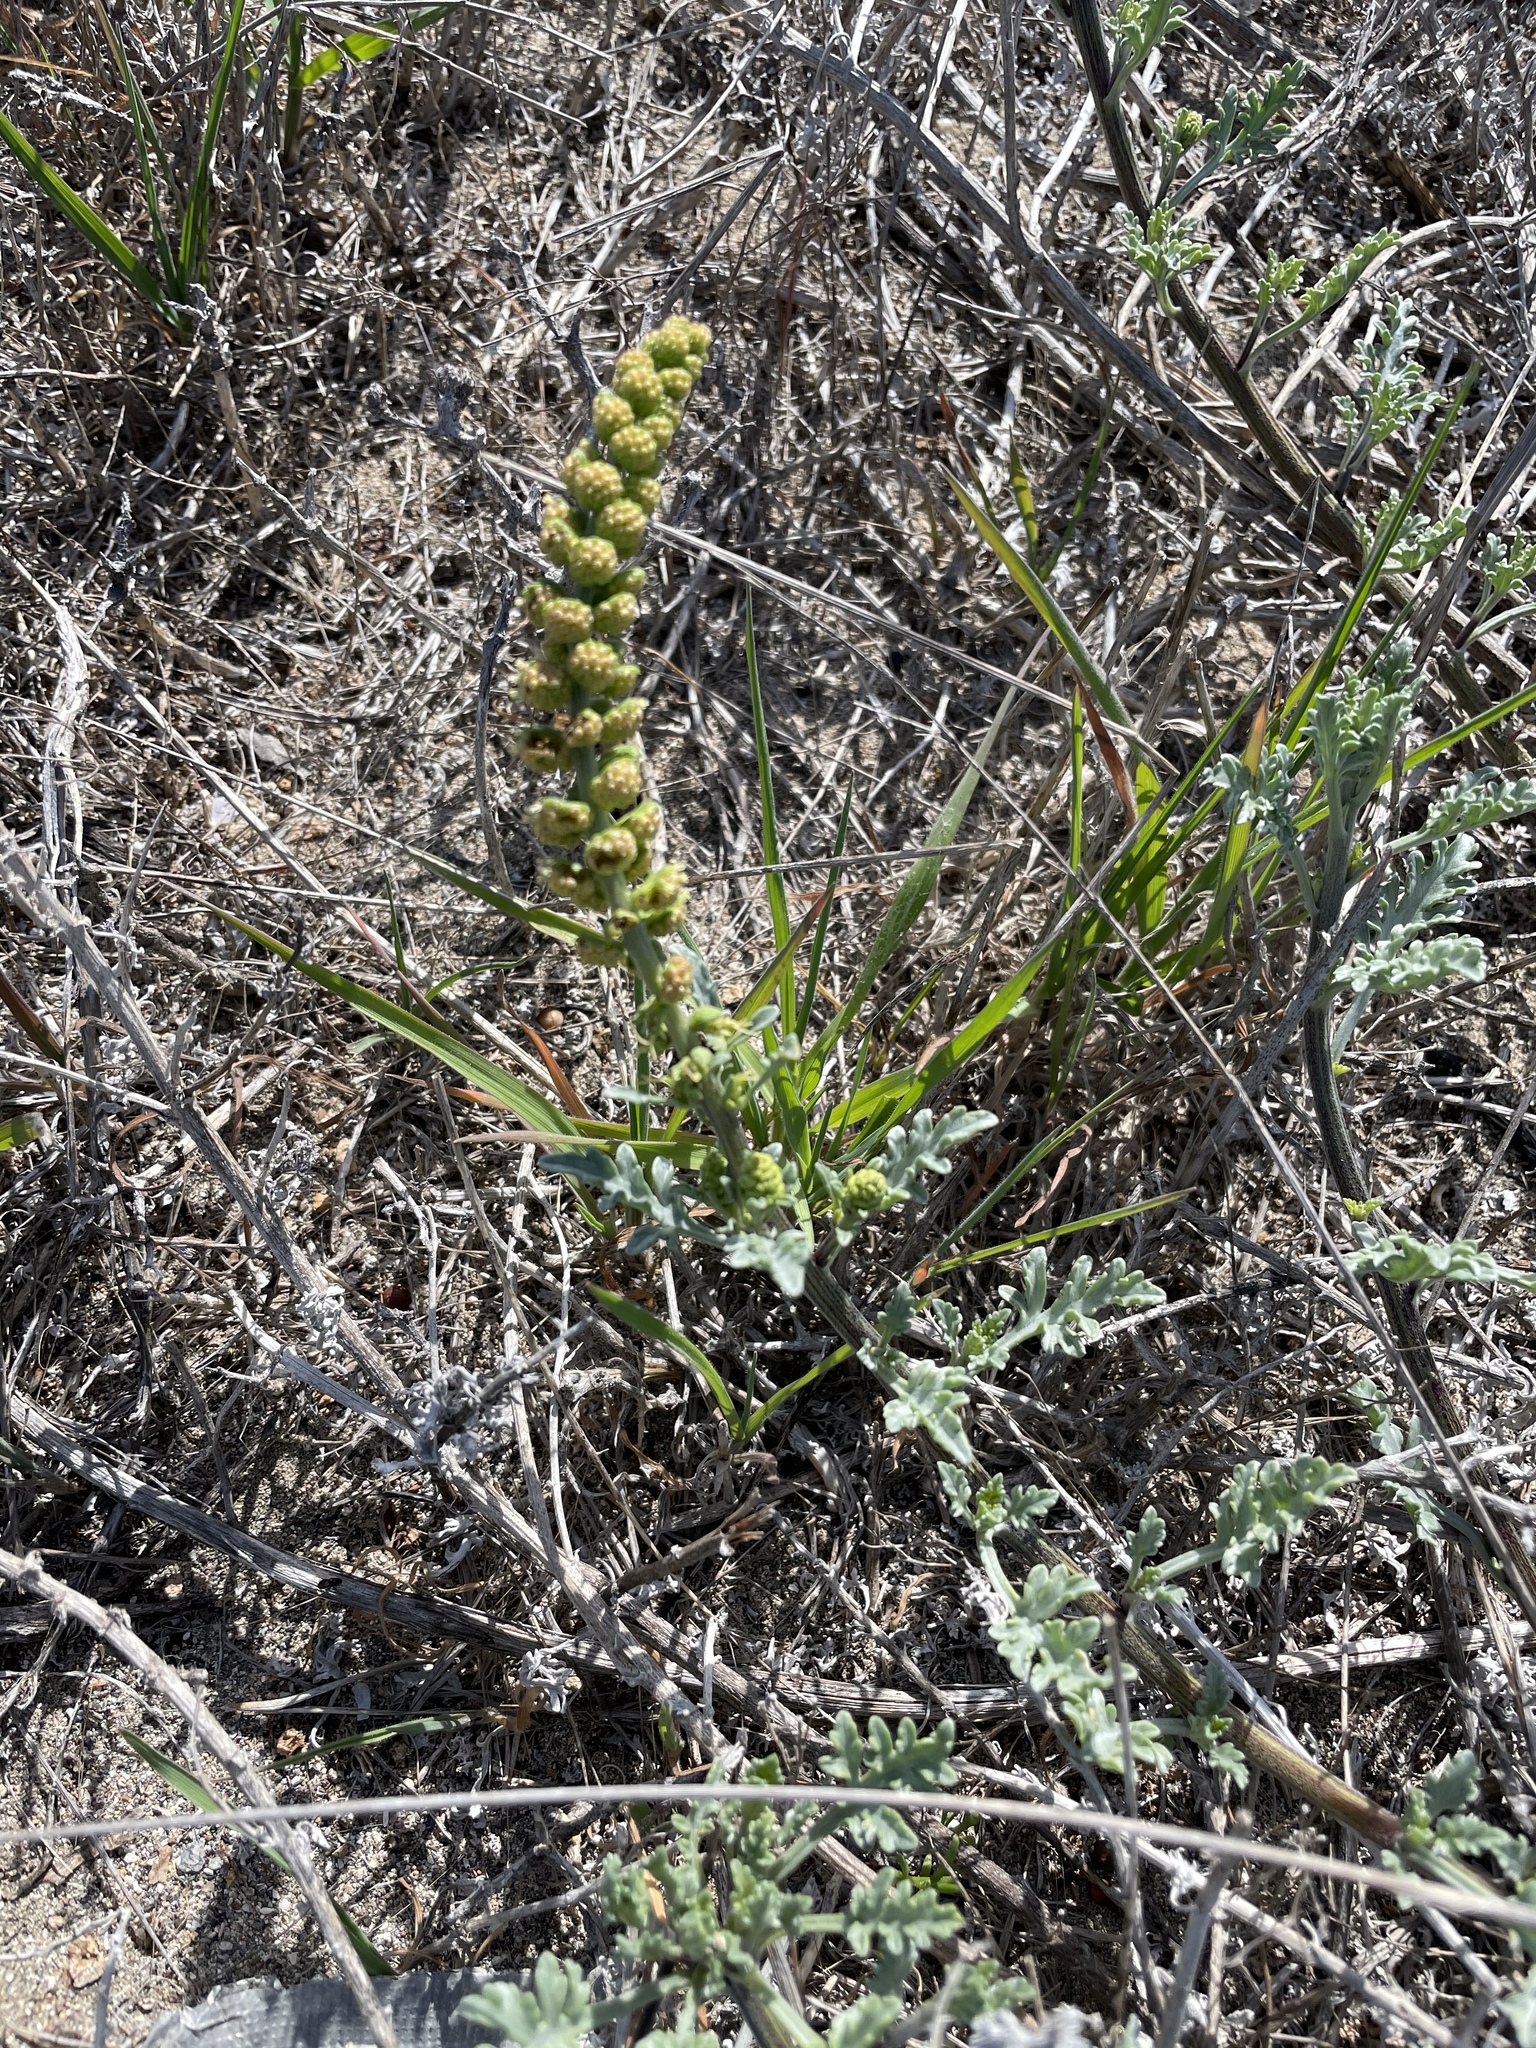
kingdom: Plantae
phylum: Tracheophyta
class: Magnoliopsida
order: Asterales
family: Asteraceae
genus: Ambrosia
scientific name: Ambrosia chamissonis
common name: Beachbur
